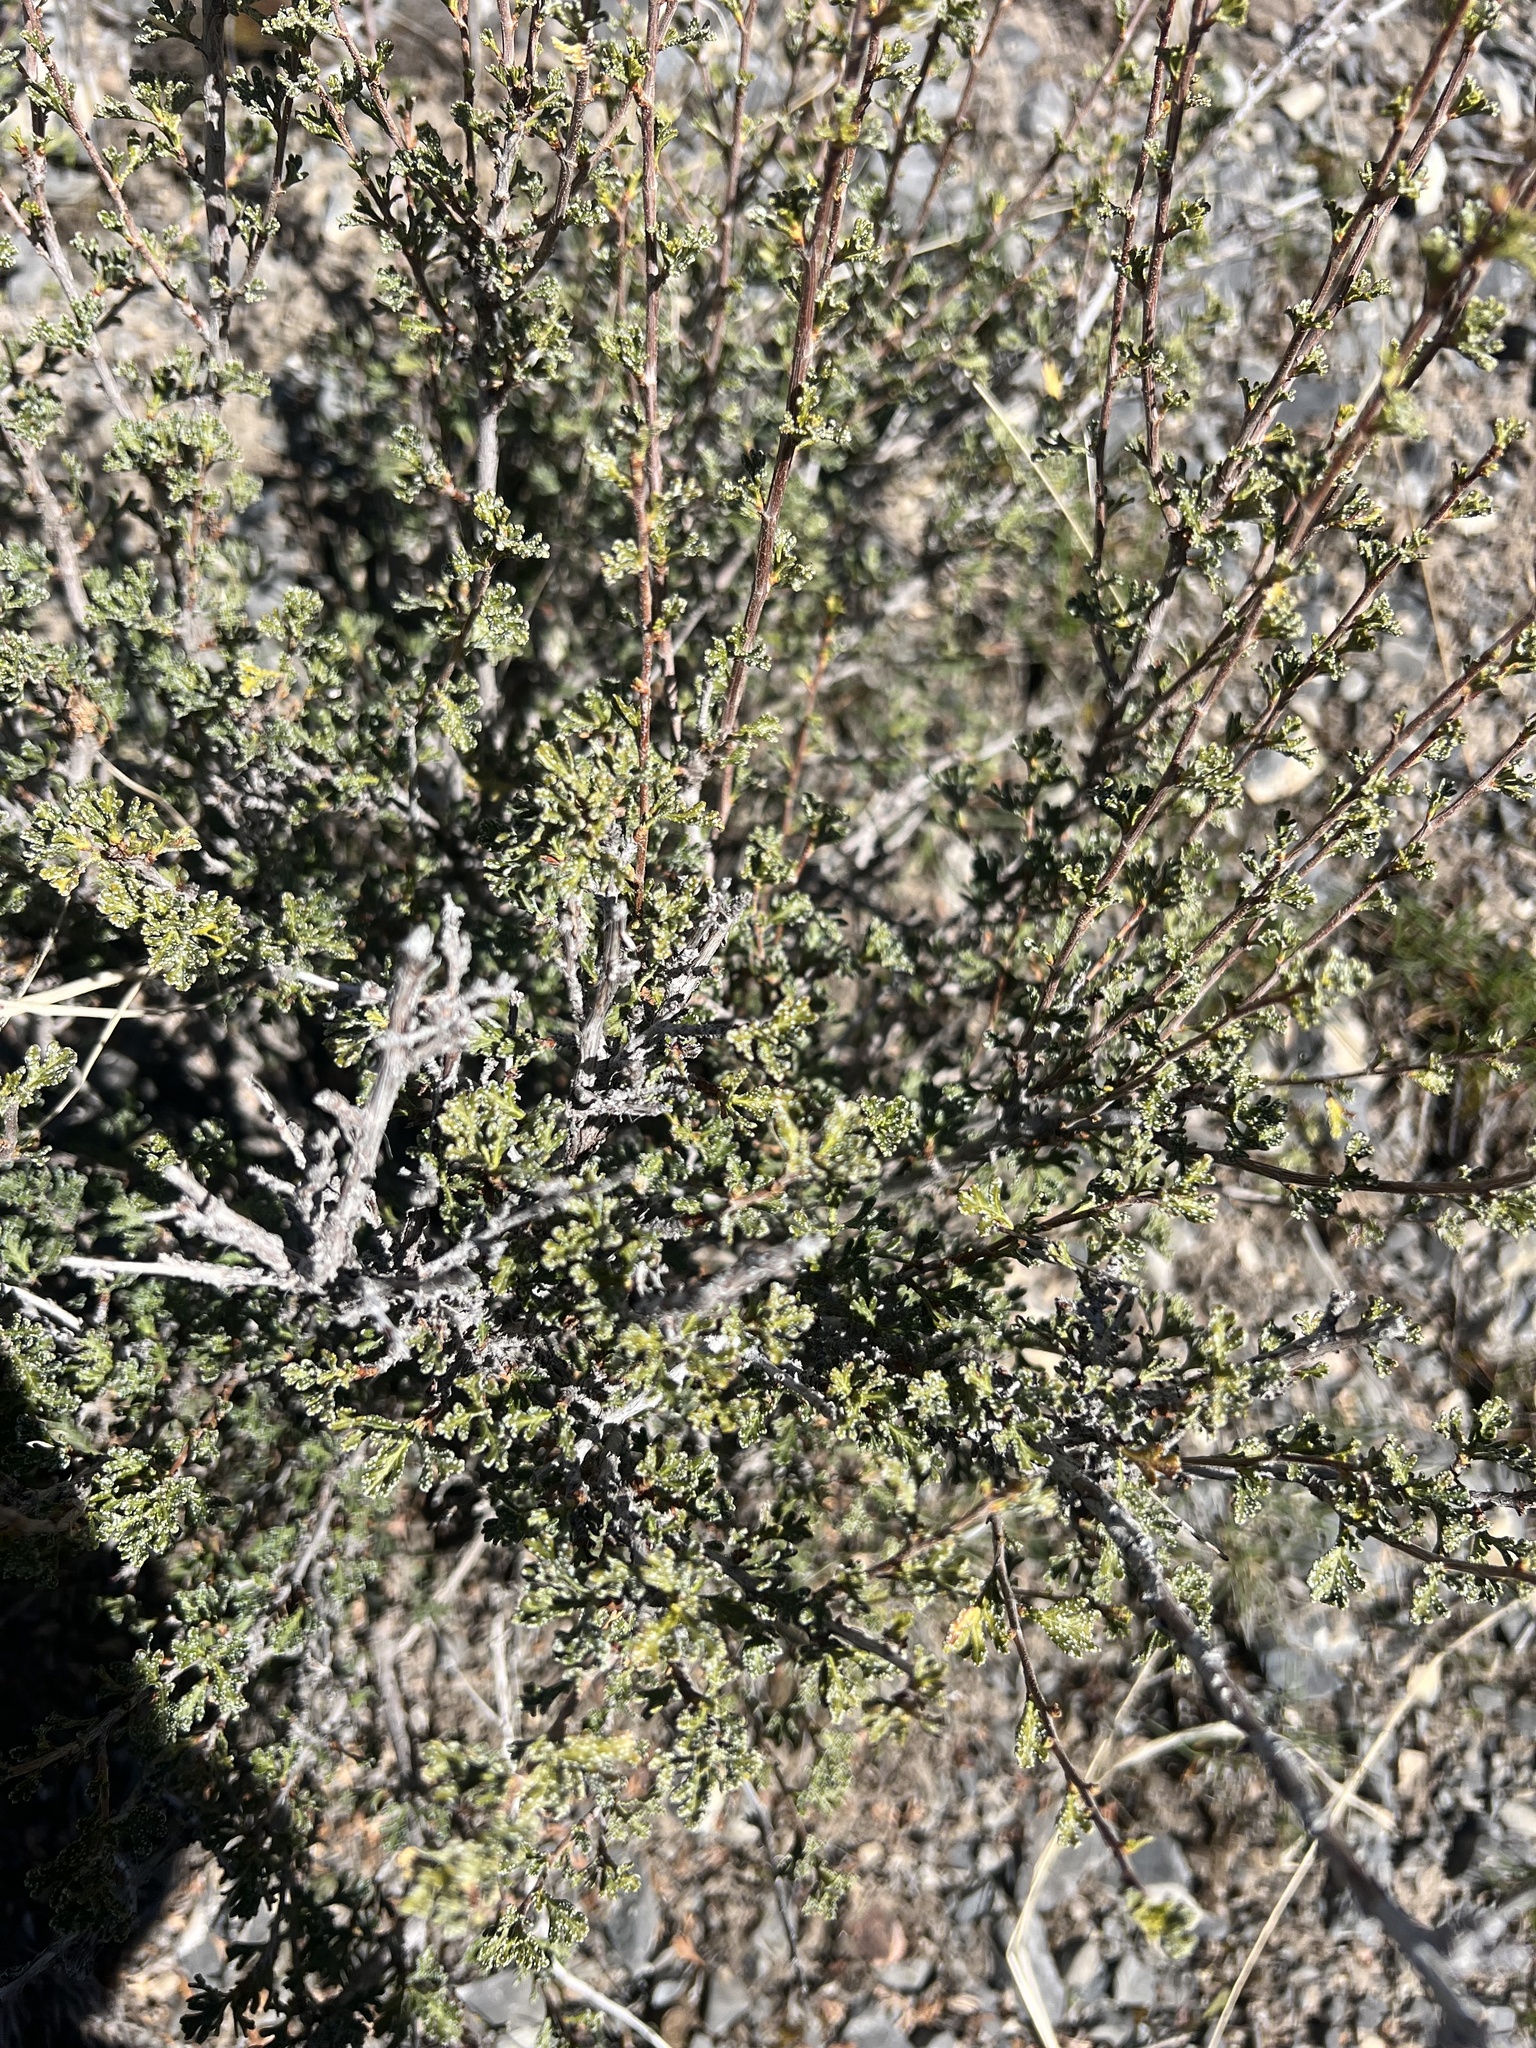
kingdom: Plantae
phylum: Tracheophyta
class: Magnoliopsida
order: Rosales
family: Rosaceae
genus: Purshia
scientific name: Purshia stansburiana
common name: Stansbury's cliffrose
